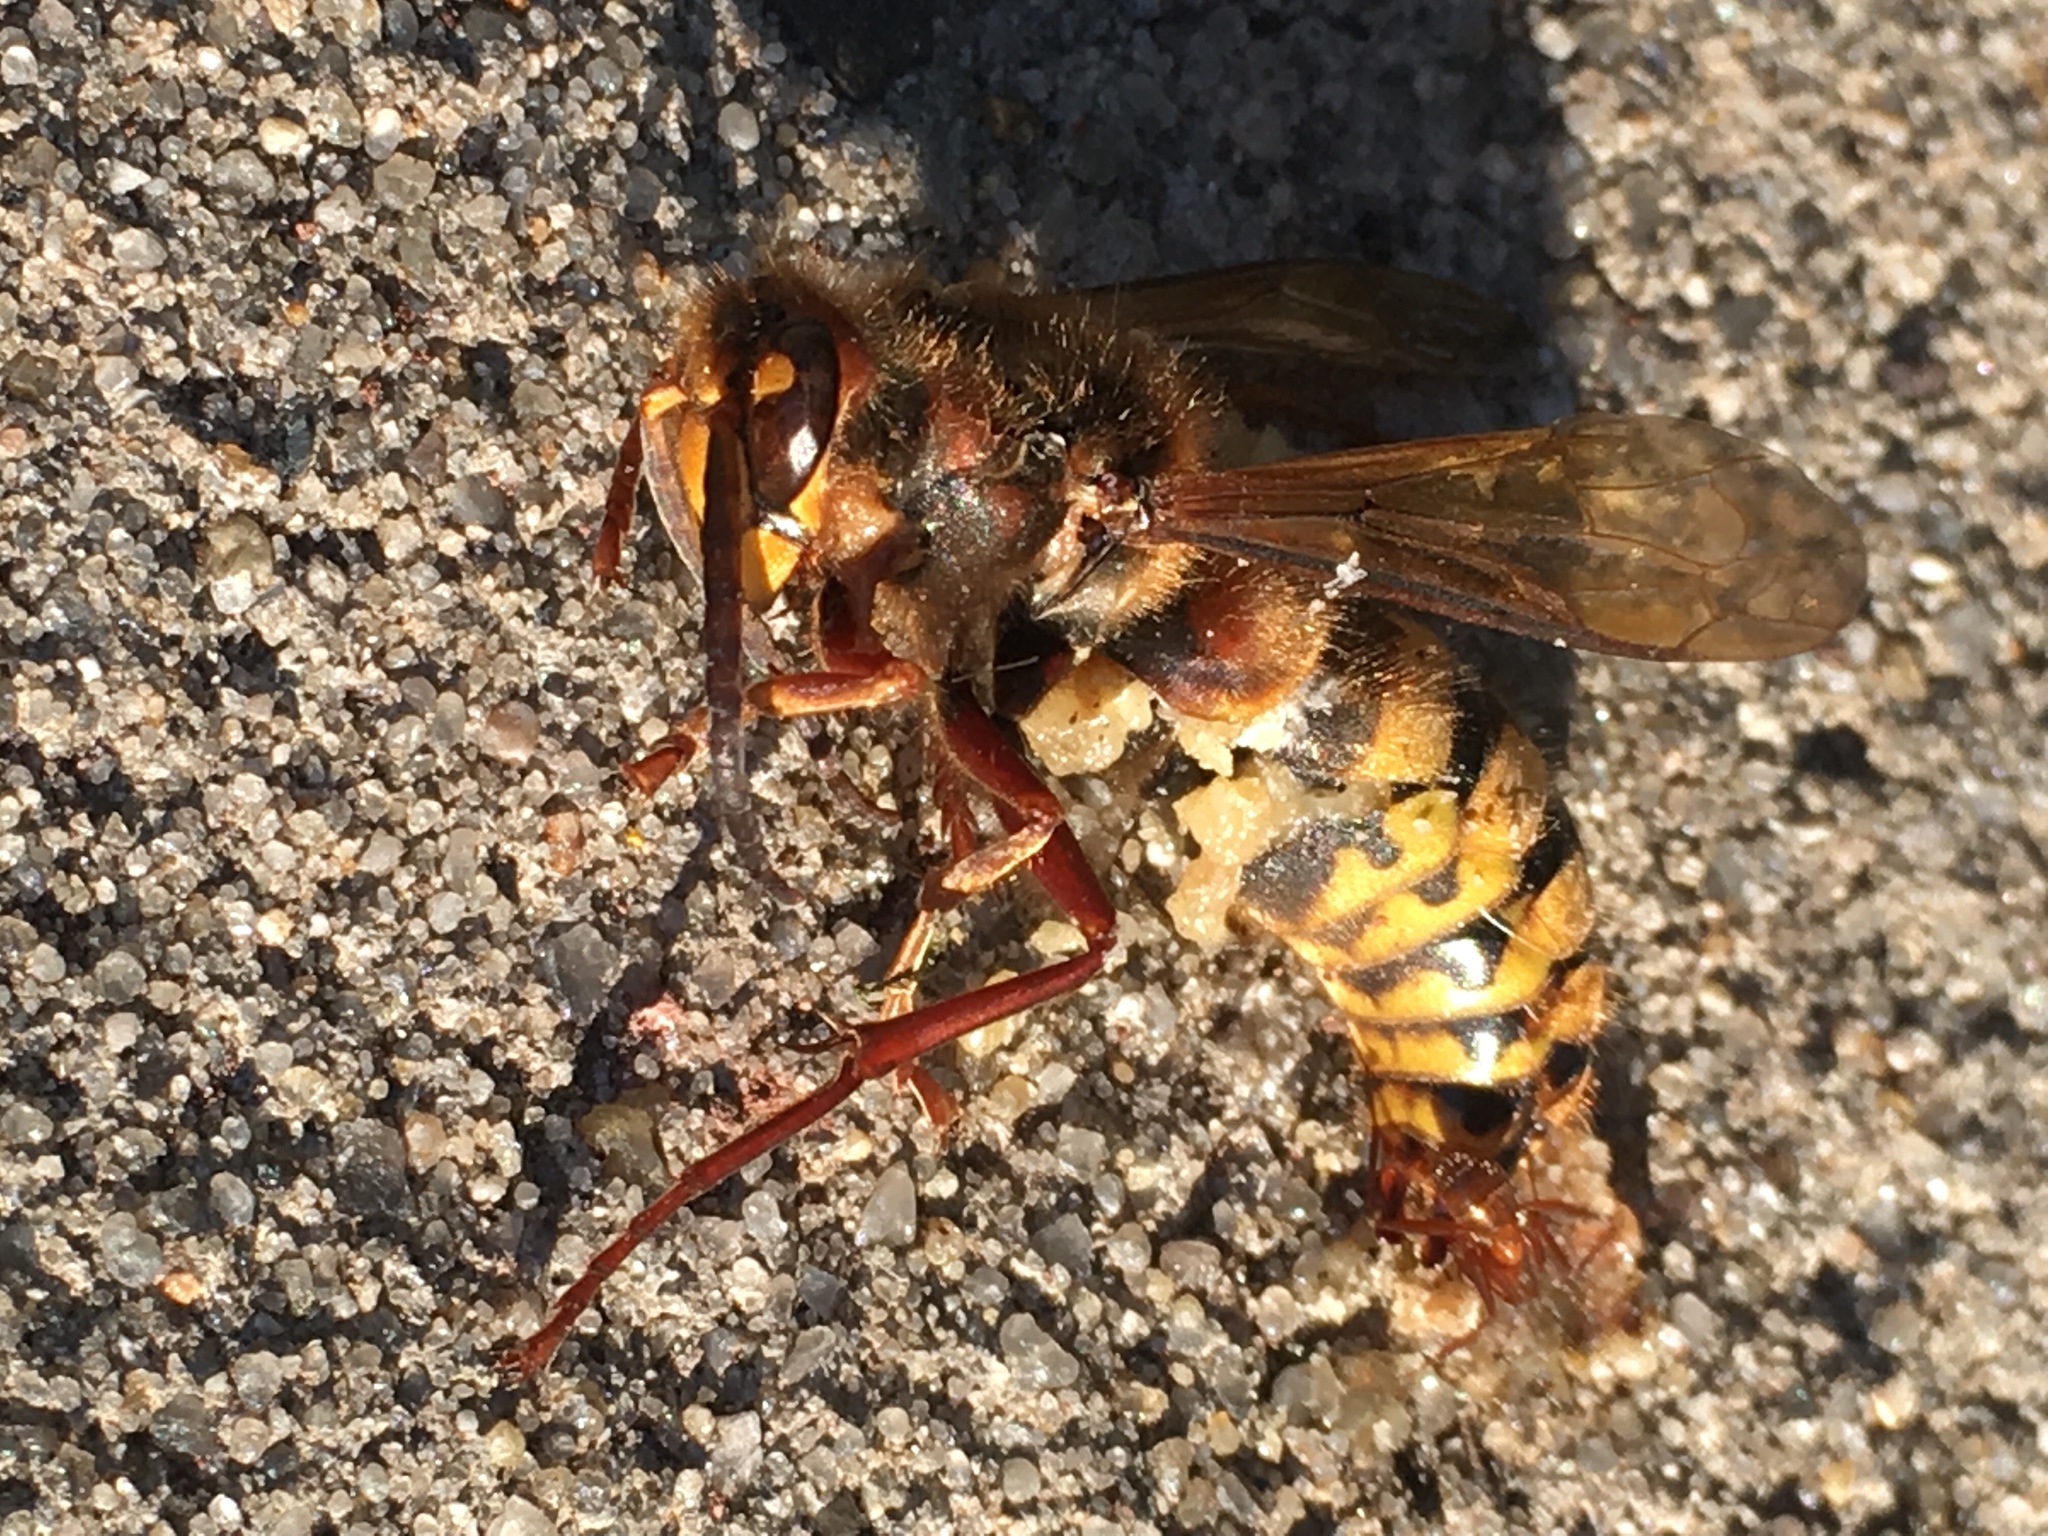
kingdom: Animalia
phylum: Arthropoda
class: Insecta
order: Hymenoptera
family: Vespidae
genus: Vespa
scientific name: Vespa crabro
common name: Hornet
